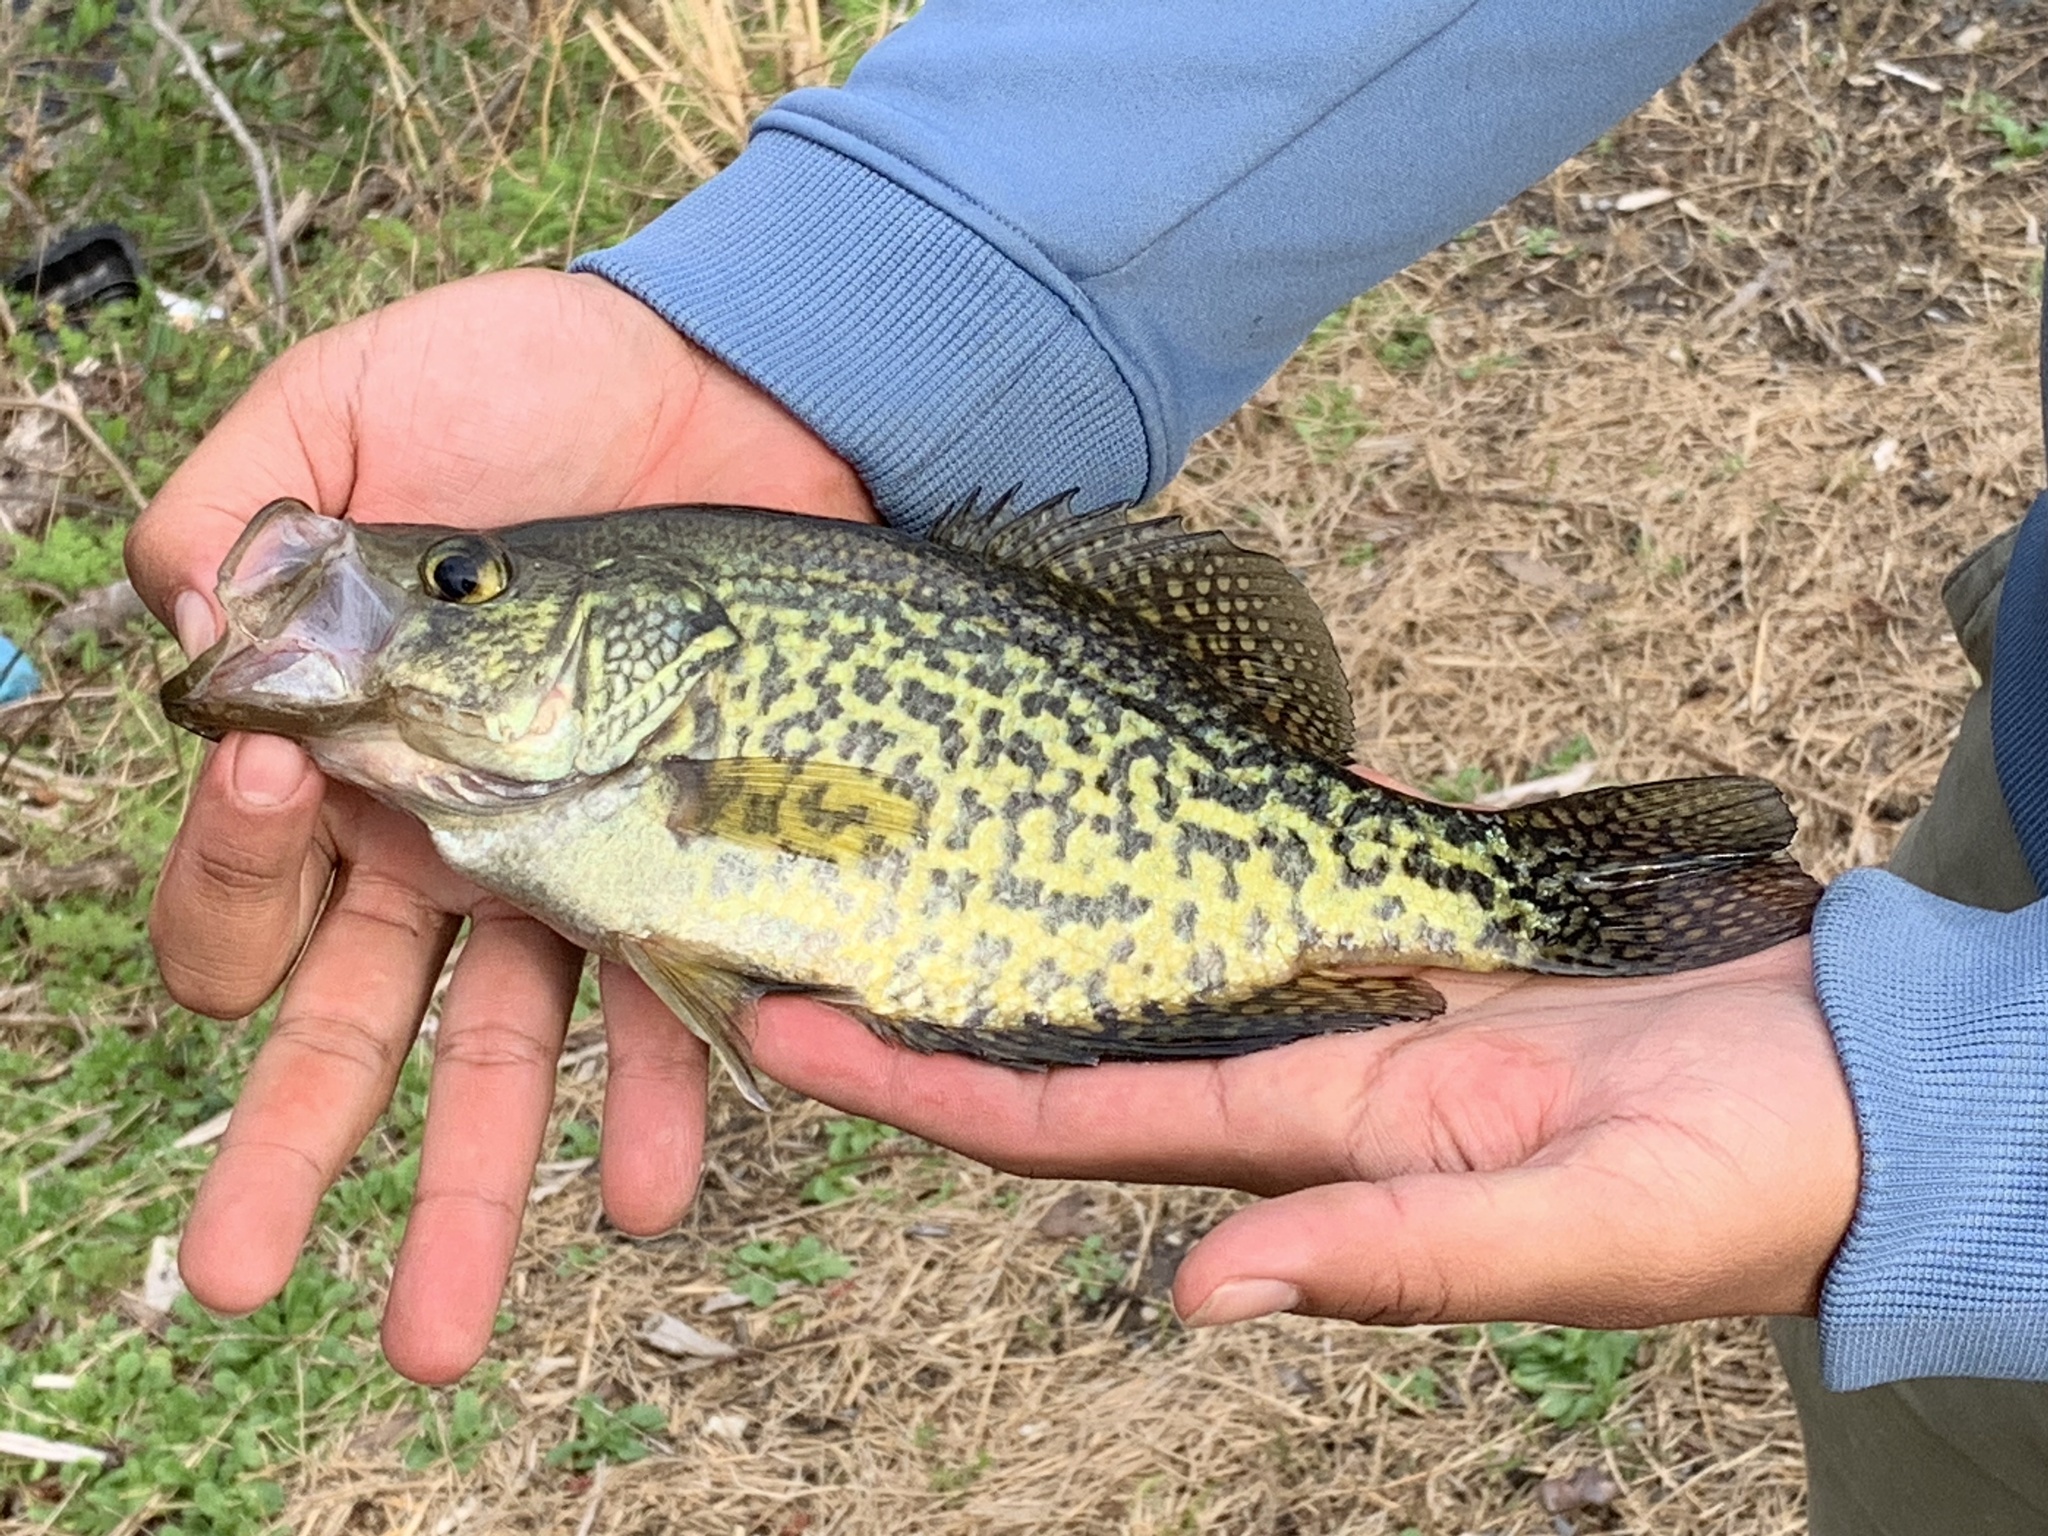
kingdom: Animalia
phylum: Chordata
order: Perciformes
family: Centrarchidae
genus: Pomoxis
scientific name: Pomoxis nigromaculatus
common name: Black crappie
